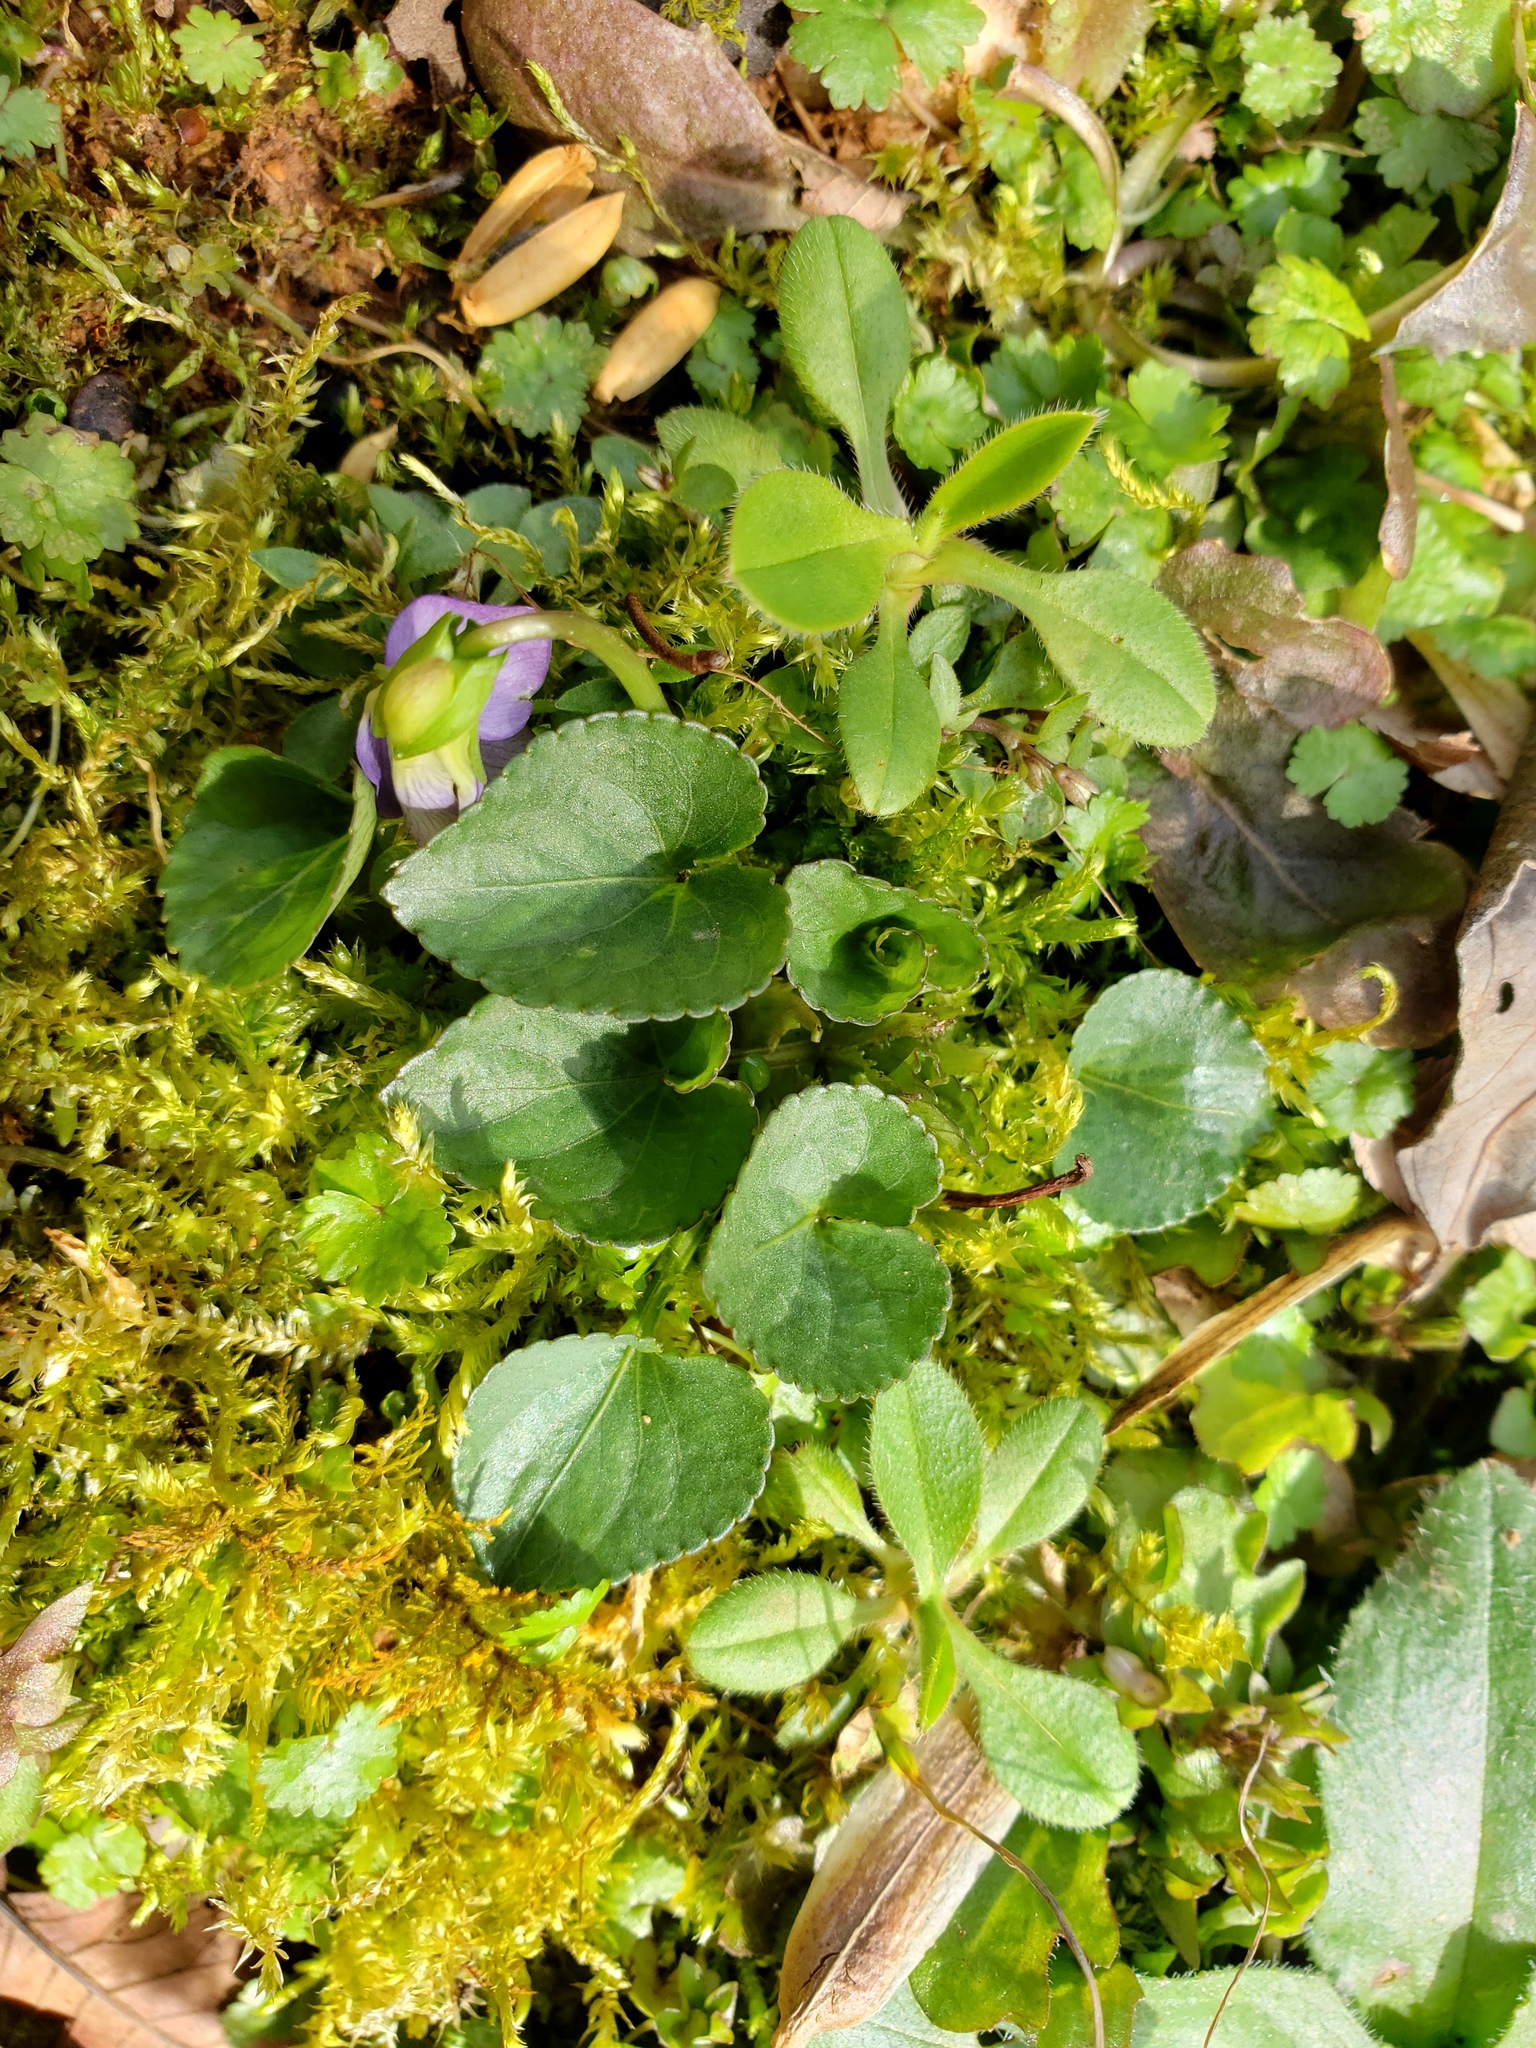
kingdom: Plantae
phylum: Tracheophyta
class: Magnoliopsida
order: Solanales
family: Convolvulaceae
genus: Dichondra
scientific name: Dichondra carolinensis
